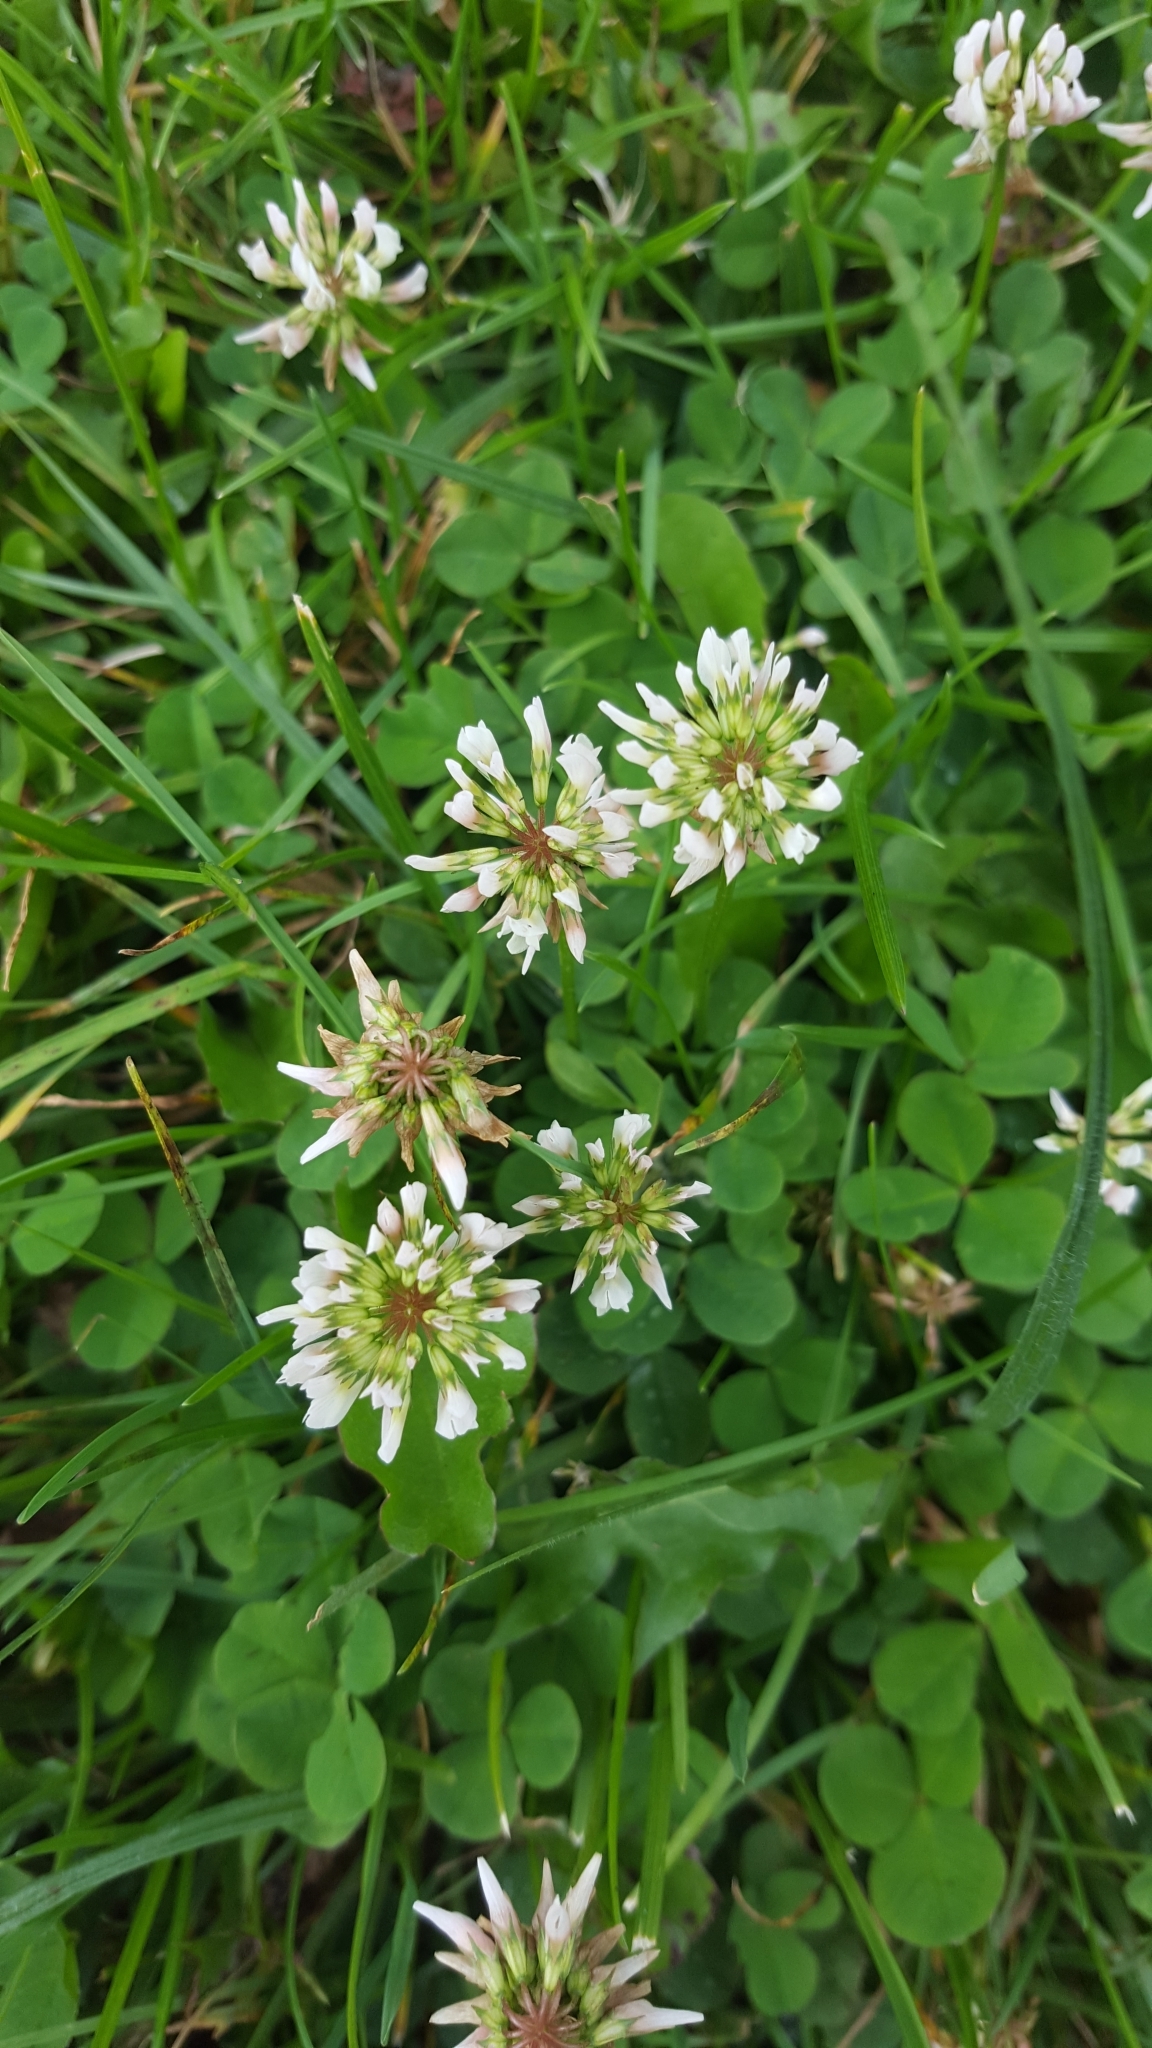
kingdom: Plantae
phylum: Tracheophyta
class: Magnoliopsida
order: Fabales
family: Fabaceae
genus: Trifolium
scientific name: Trifolium repens
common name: White clover
